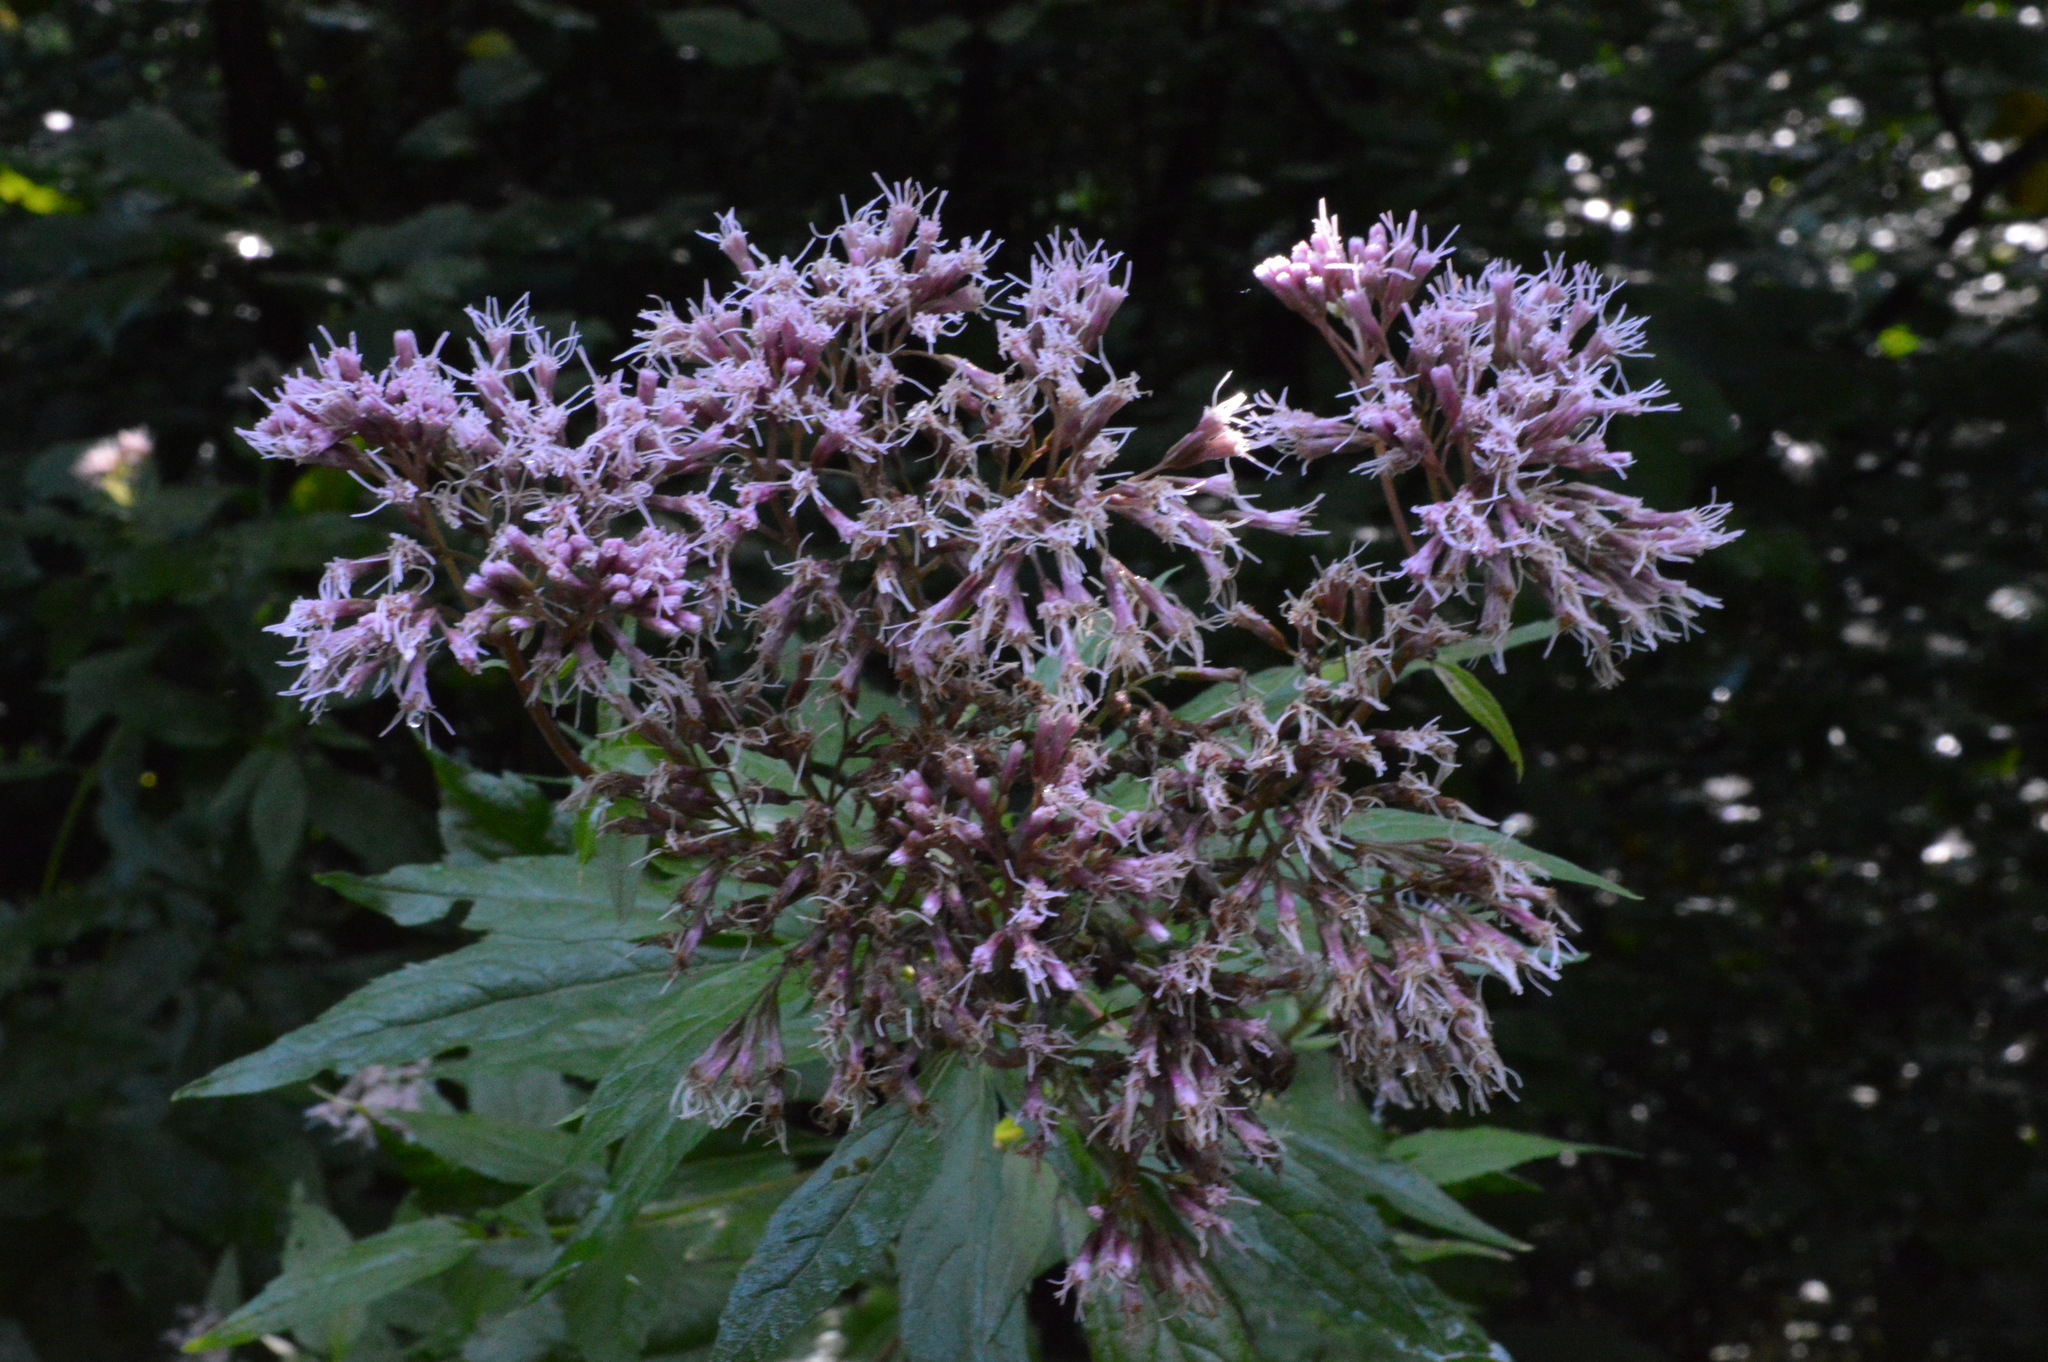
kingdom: Plantae
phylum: Tracheophyta
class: Magnoliopsida
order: Asterales
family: Asteraceae
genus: Eupatorium
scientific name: Eupatorium cannabinum
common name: Hemp-agrimony
